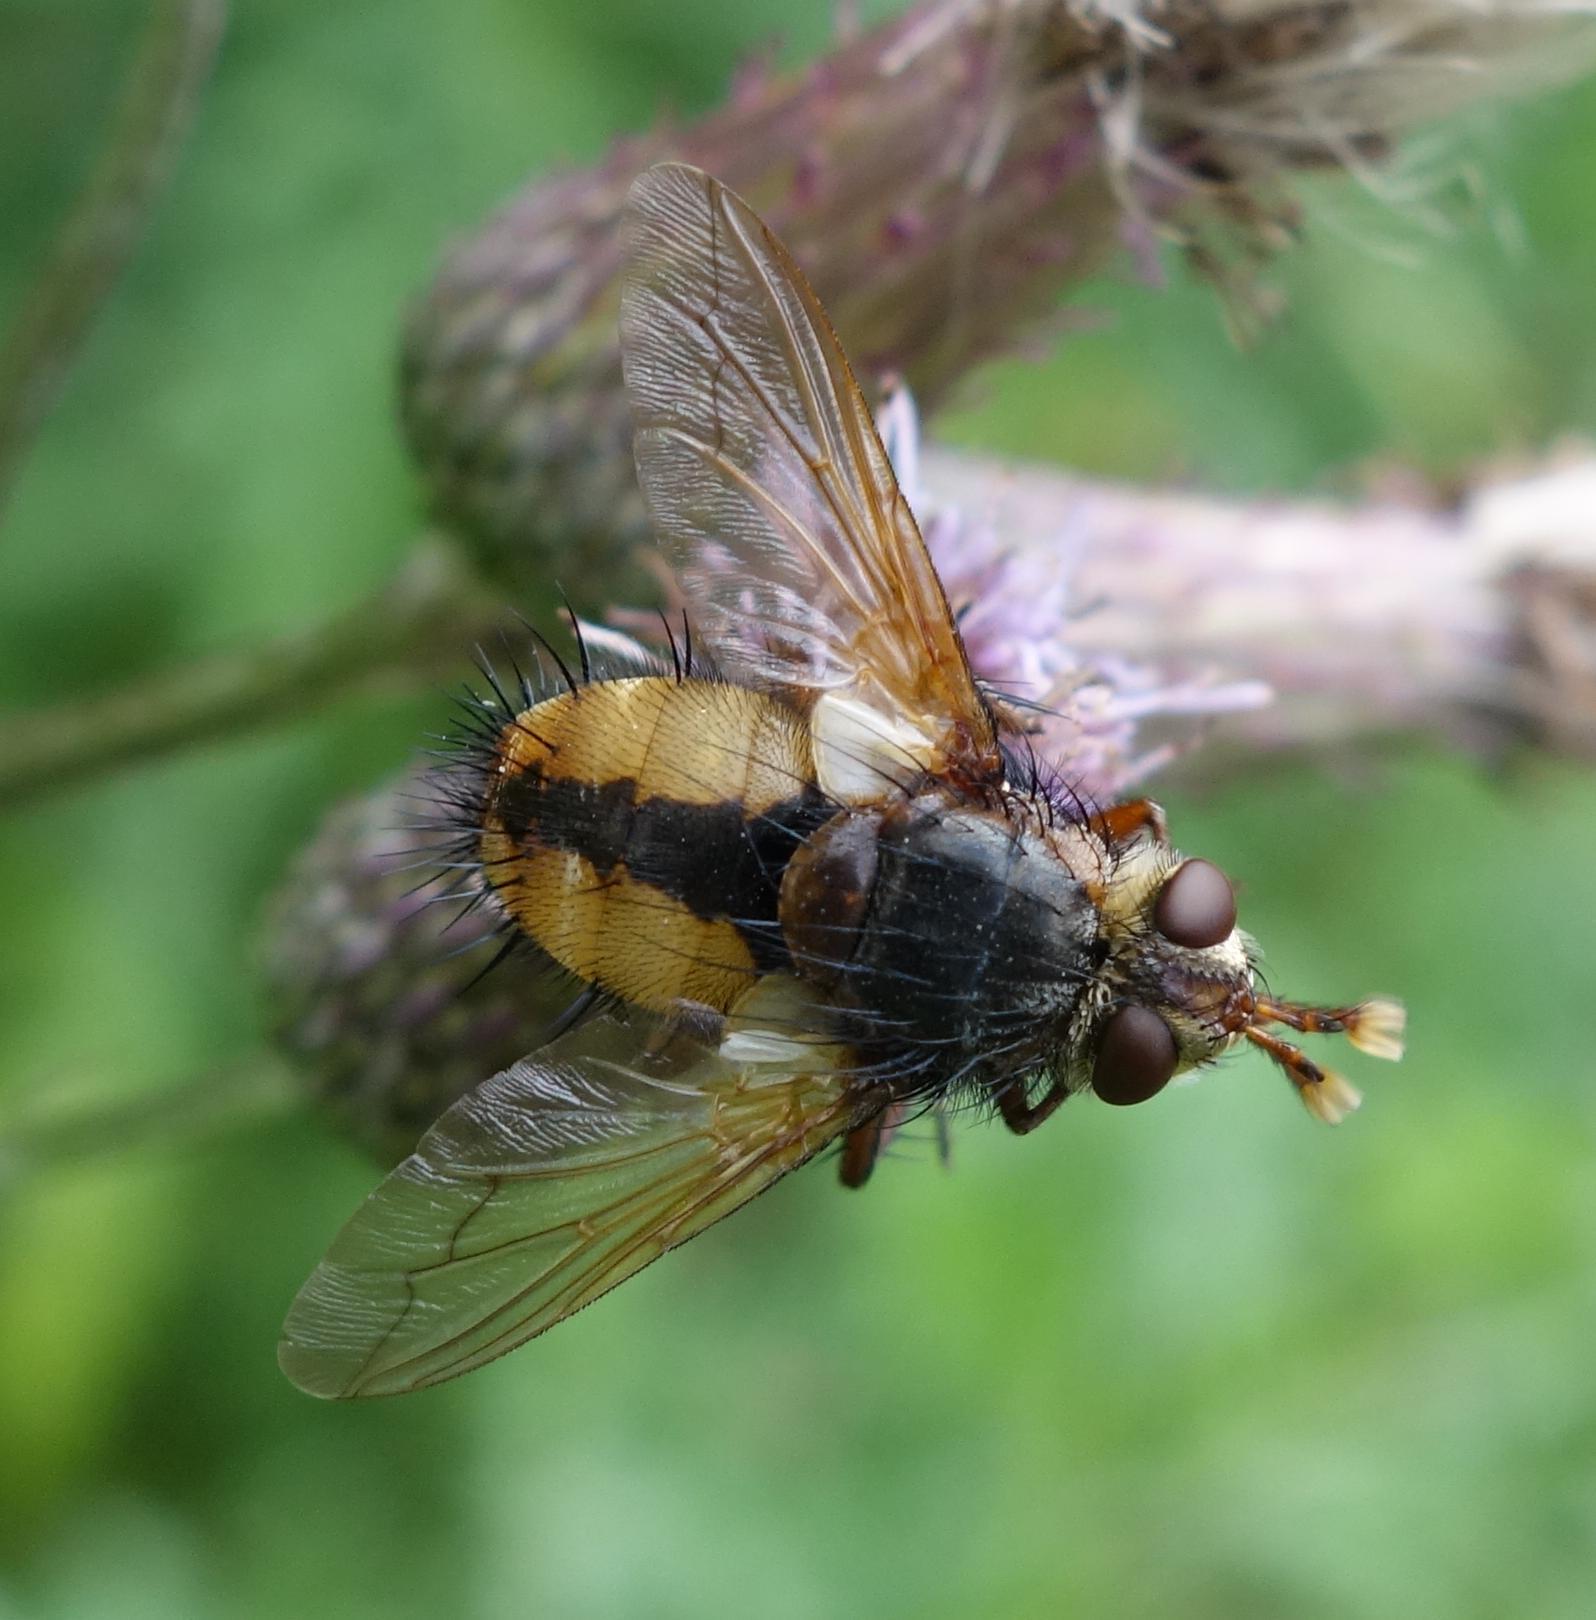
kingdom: Animalia
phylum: Arthropoda
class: Insecta
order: Diptera
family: Tachinidae
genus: Tachina
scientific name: Tachina fera
